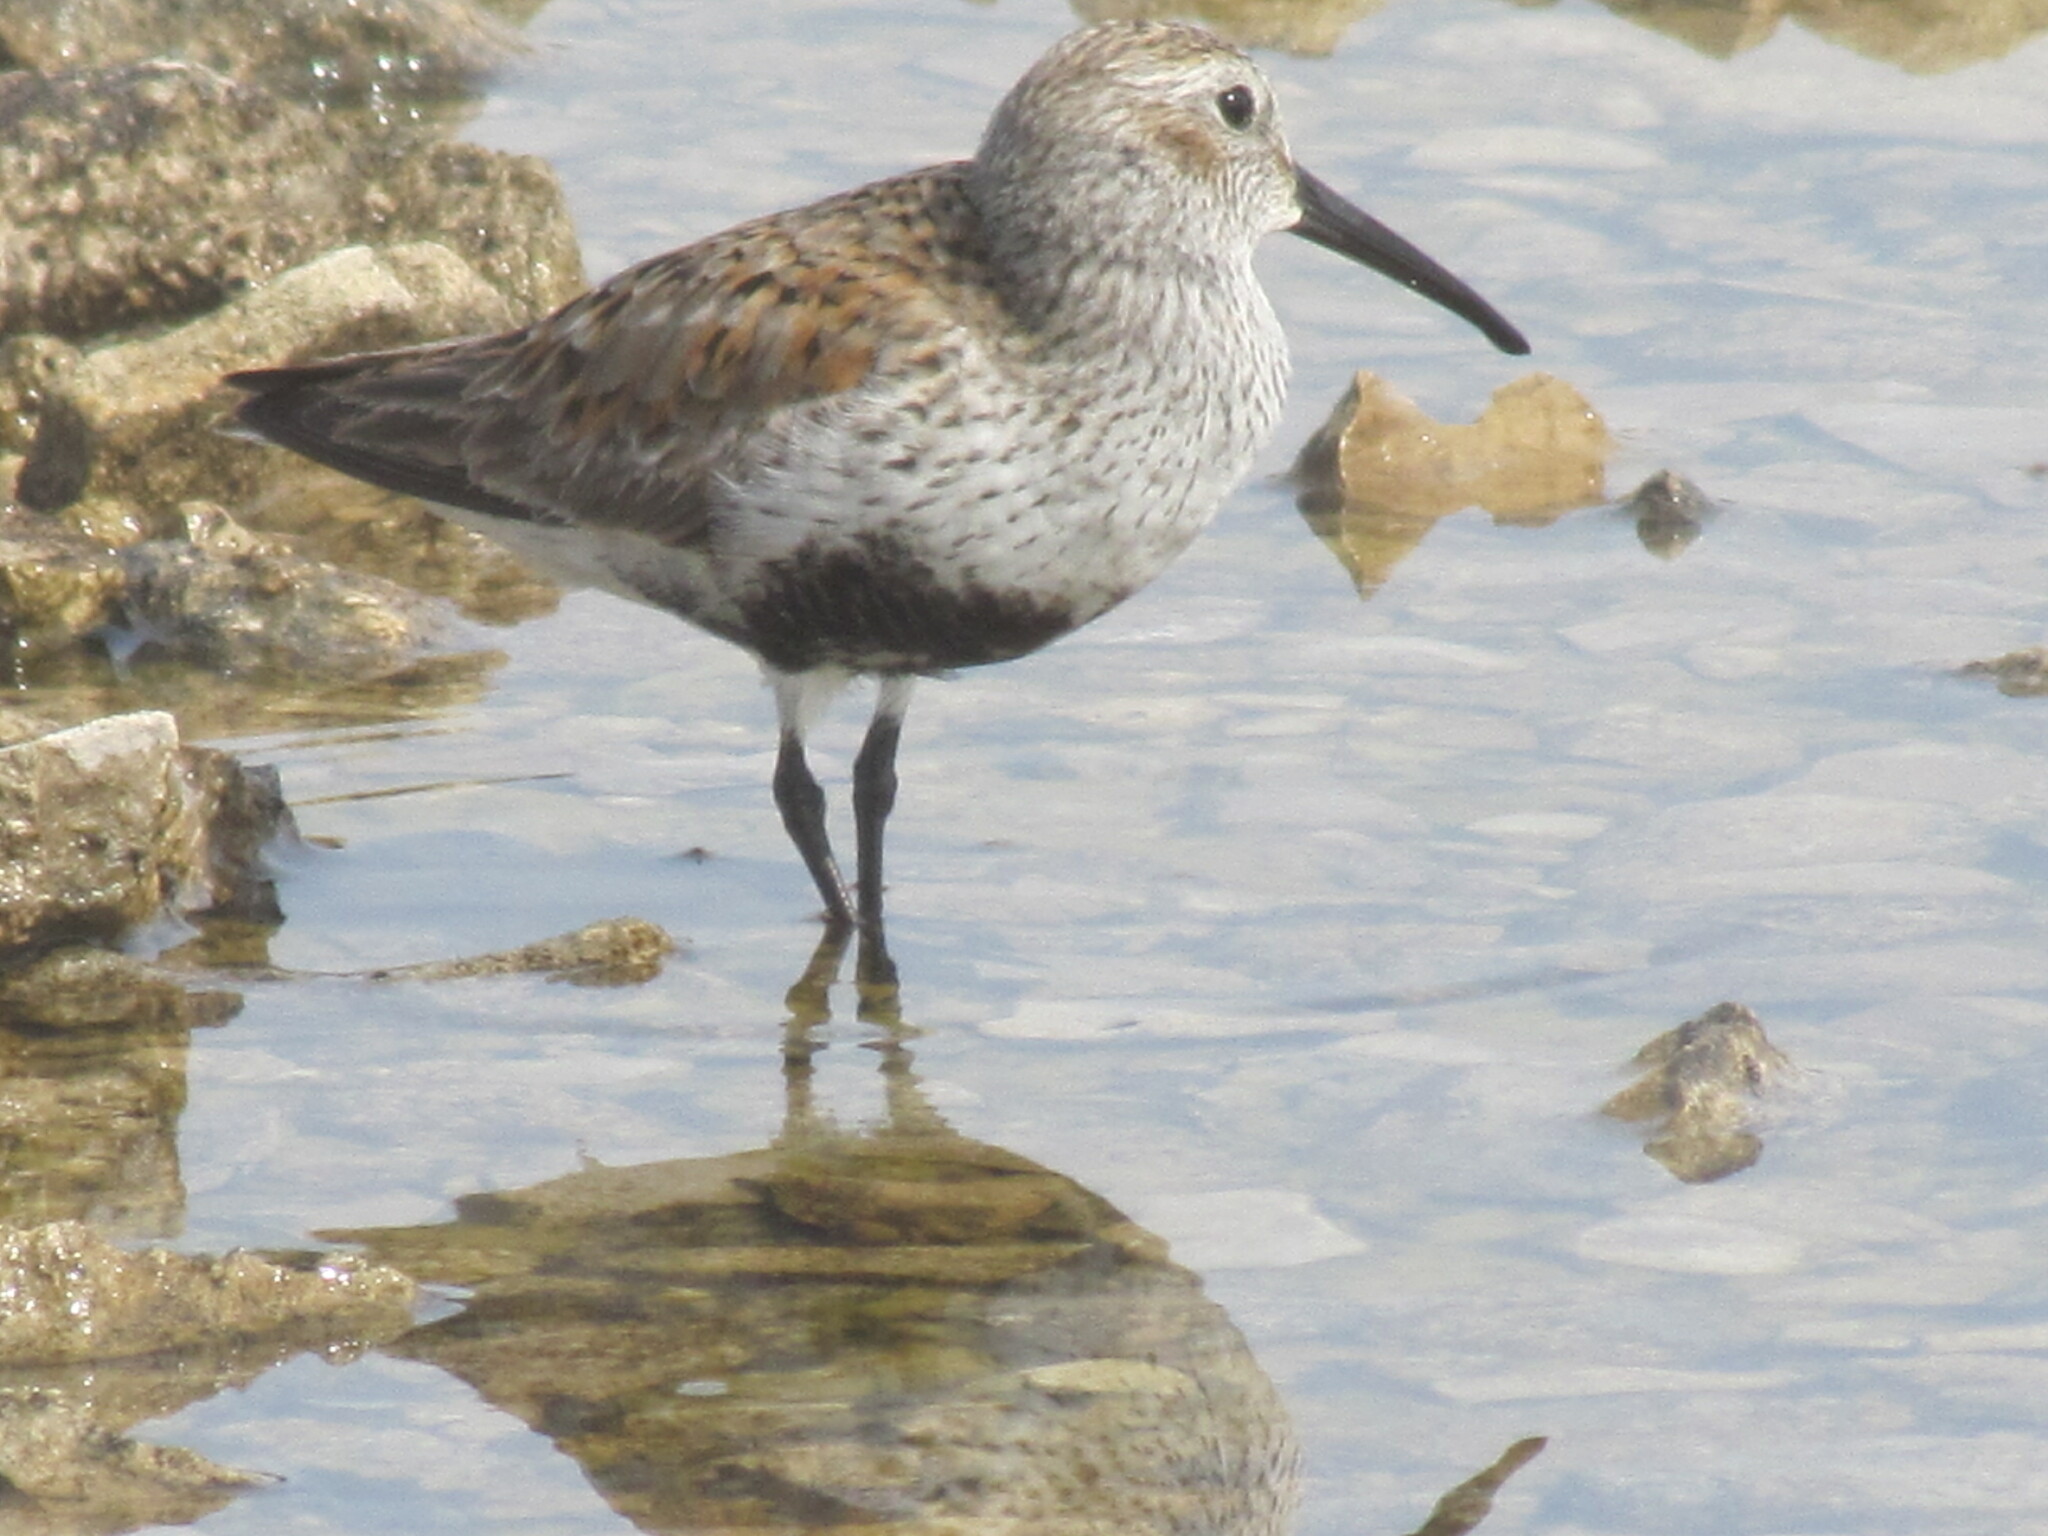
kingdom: Animalia
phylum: Chordata
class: Aves
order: Charadriiformes
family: Scolopacidae
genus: Calidris
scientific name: Calidris alpina
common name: Dunlin
